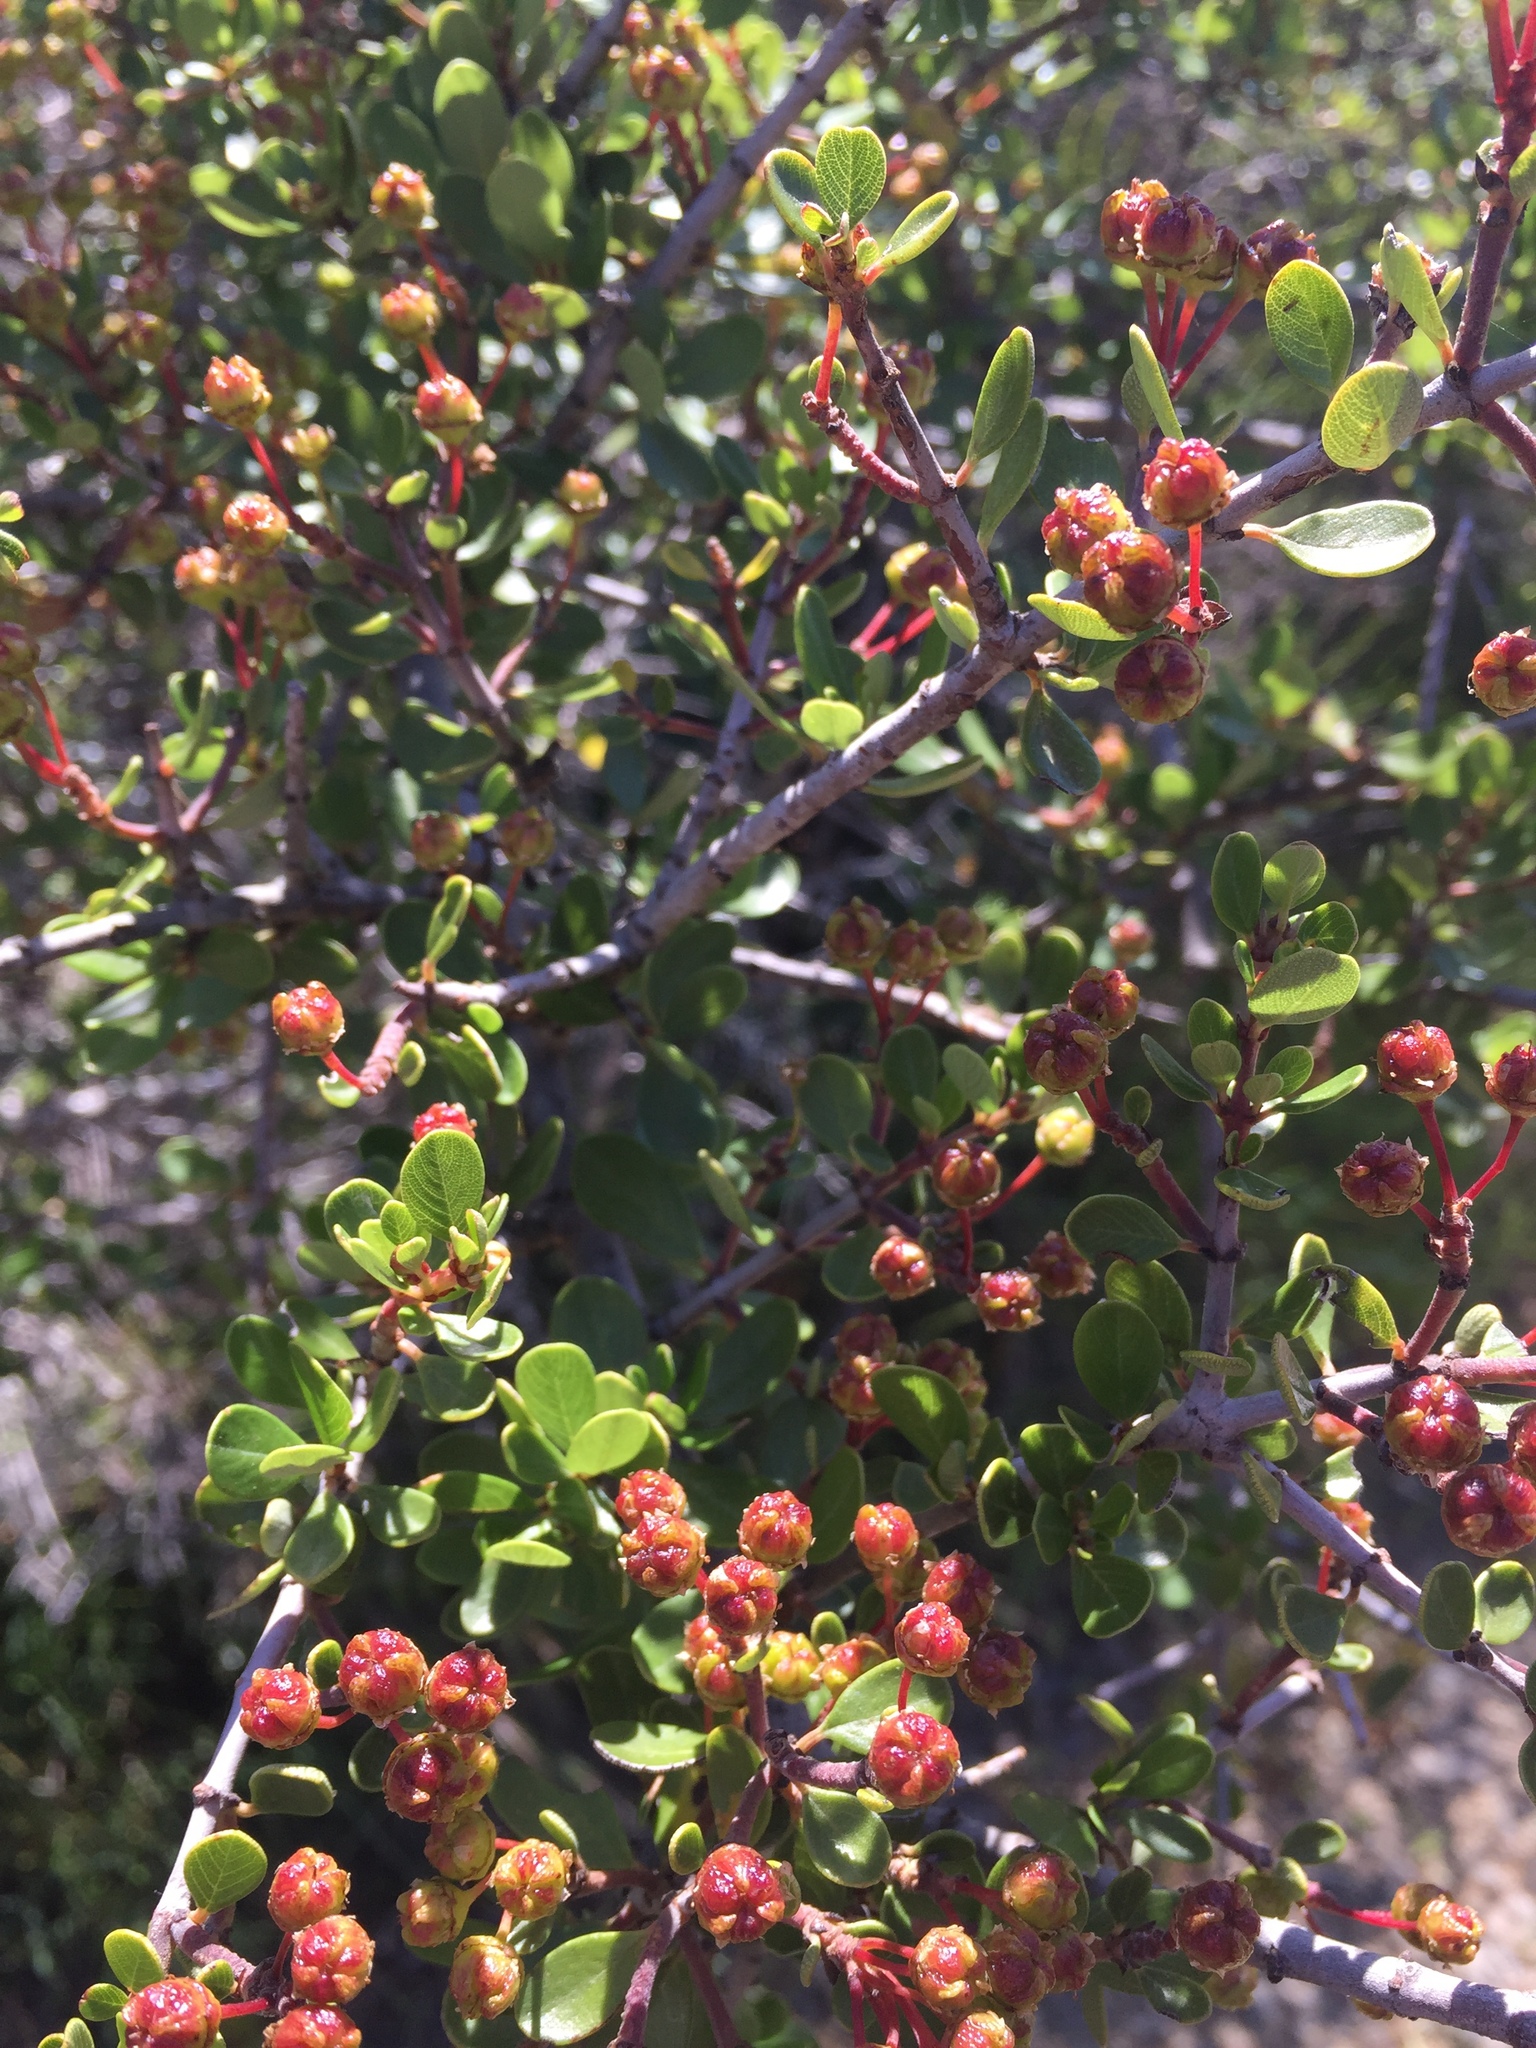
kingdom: Plantae
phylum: Tracheophyta
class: Magnoliopsida
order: Rosales
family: Rhamnaceae
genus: Ceanothus
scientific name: Ceanothus cuneatus
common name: Cuneate ceanothus
